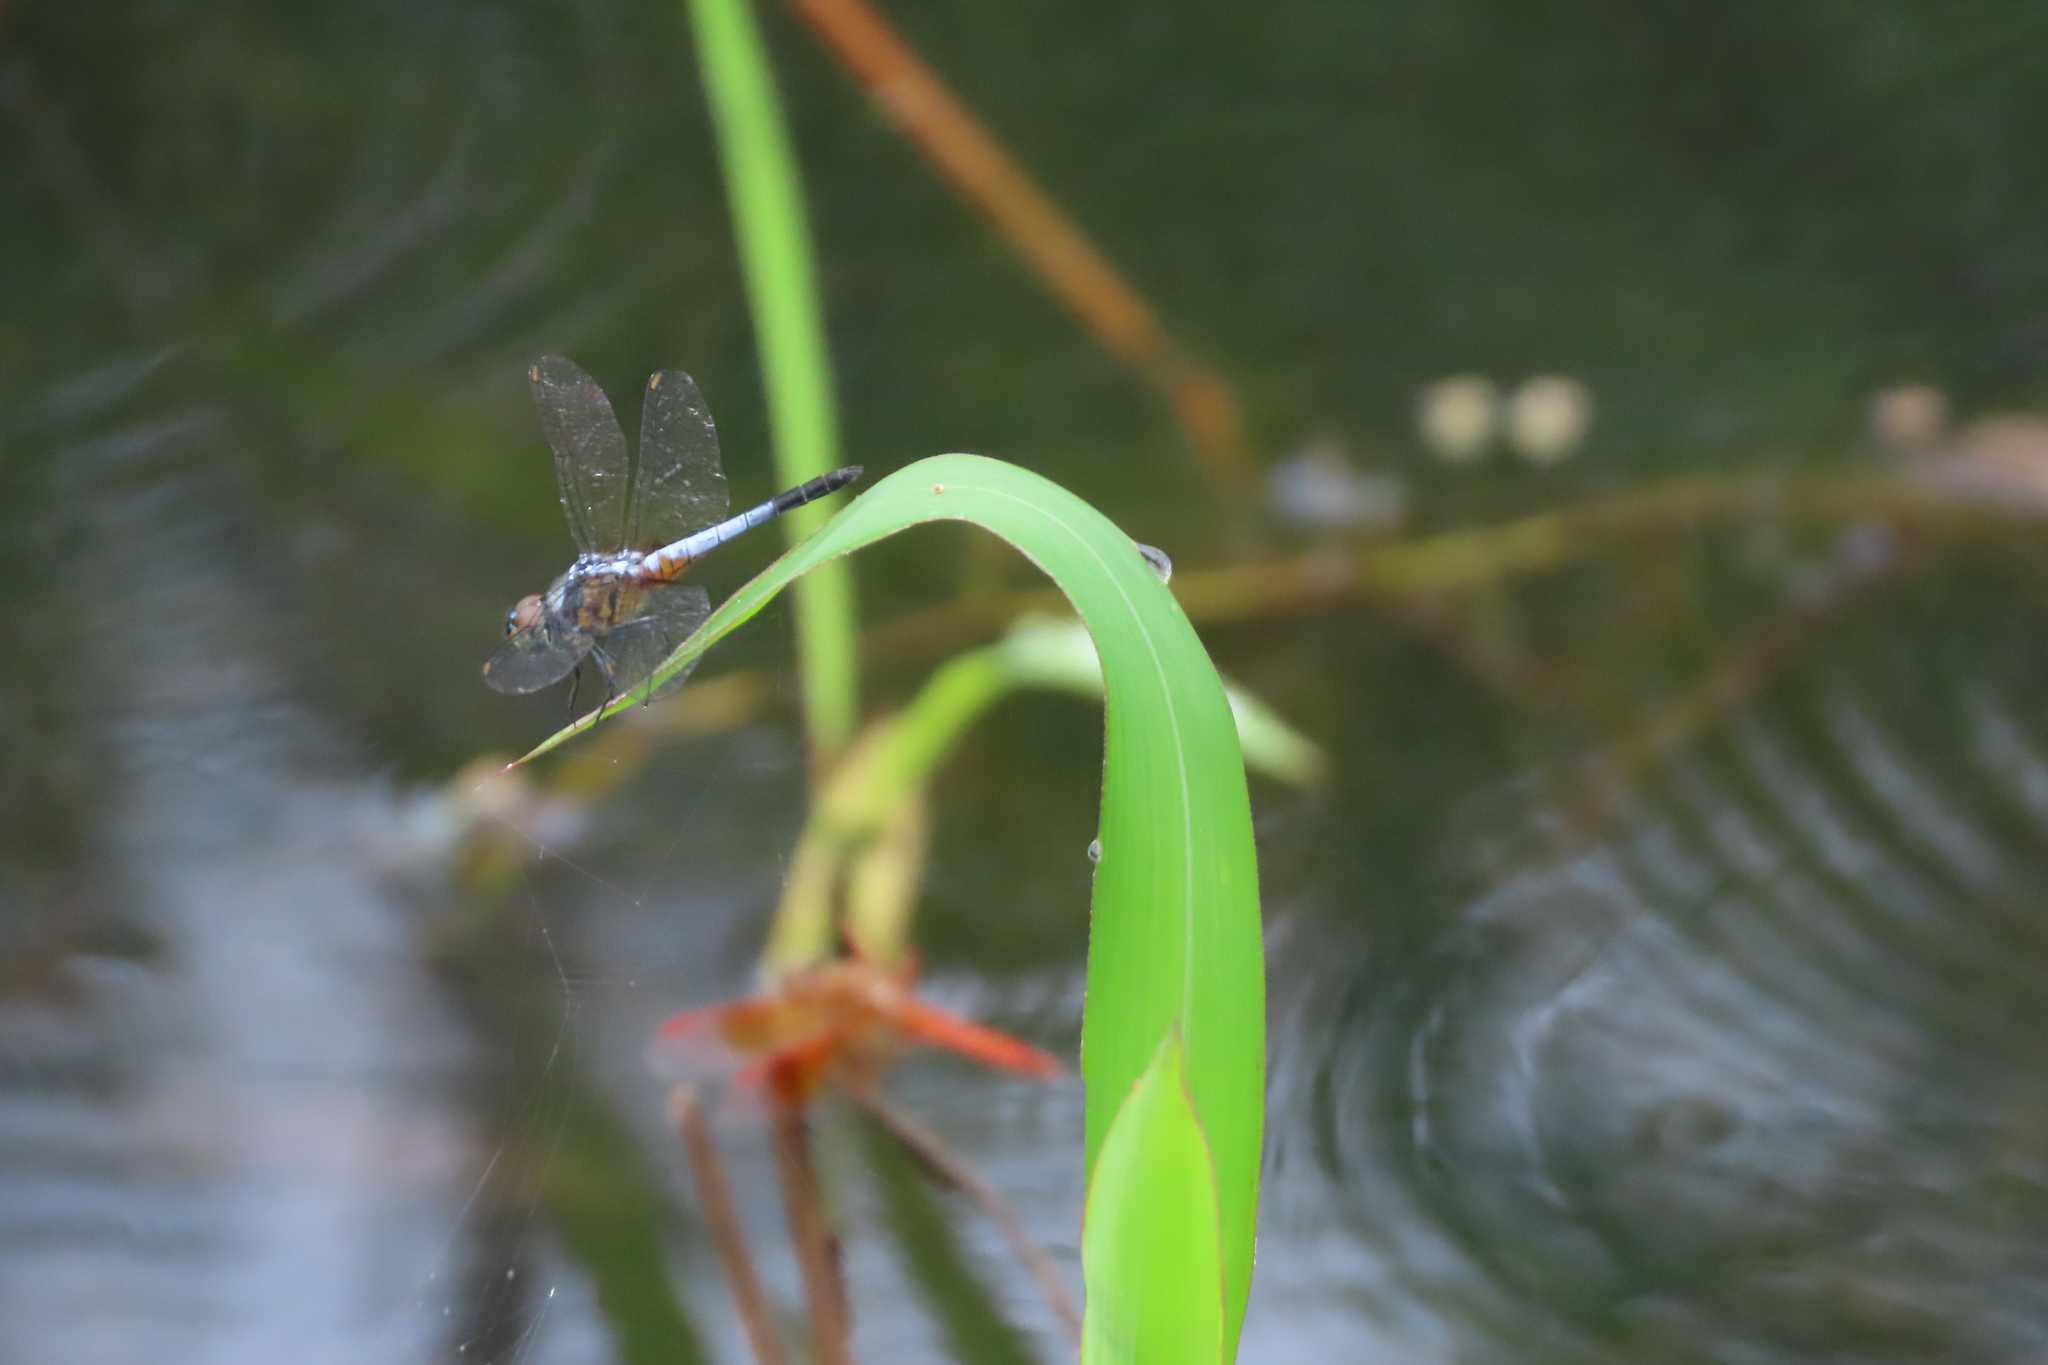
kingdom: Animalia
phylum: Arthropoda
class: Insecta
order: Odonata
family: Libellulidae
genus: Brachydiplax
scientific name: Brachydiplax chalybea
